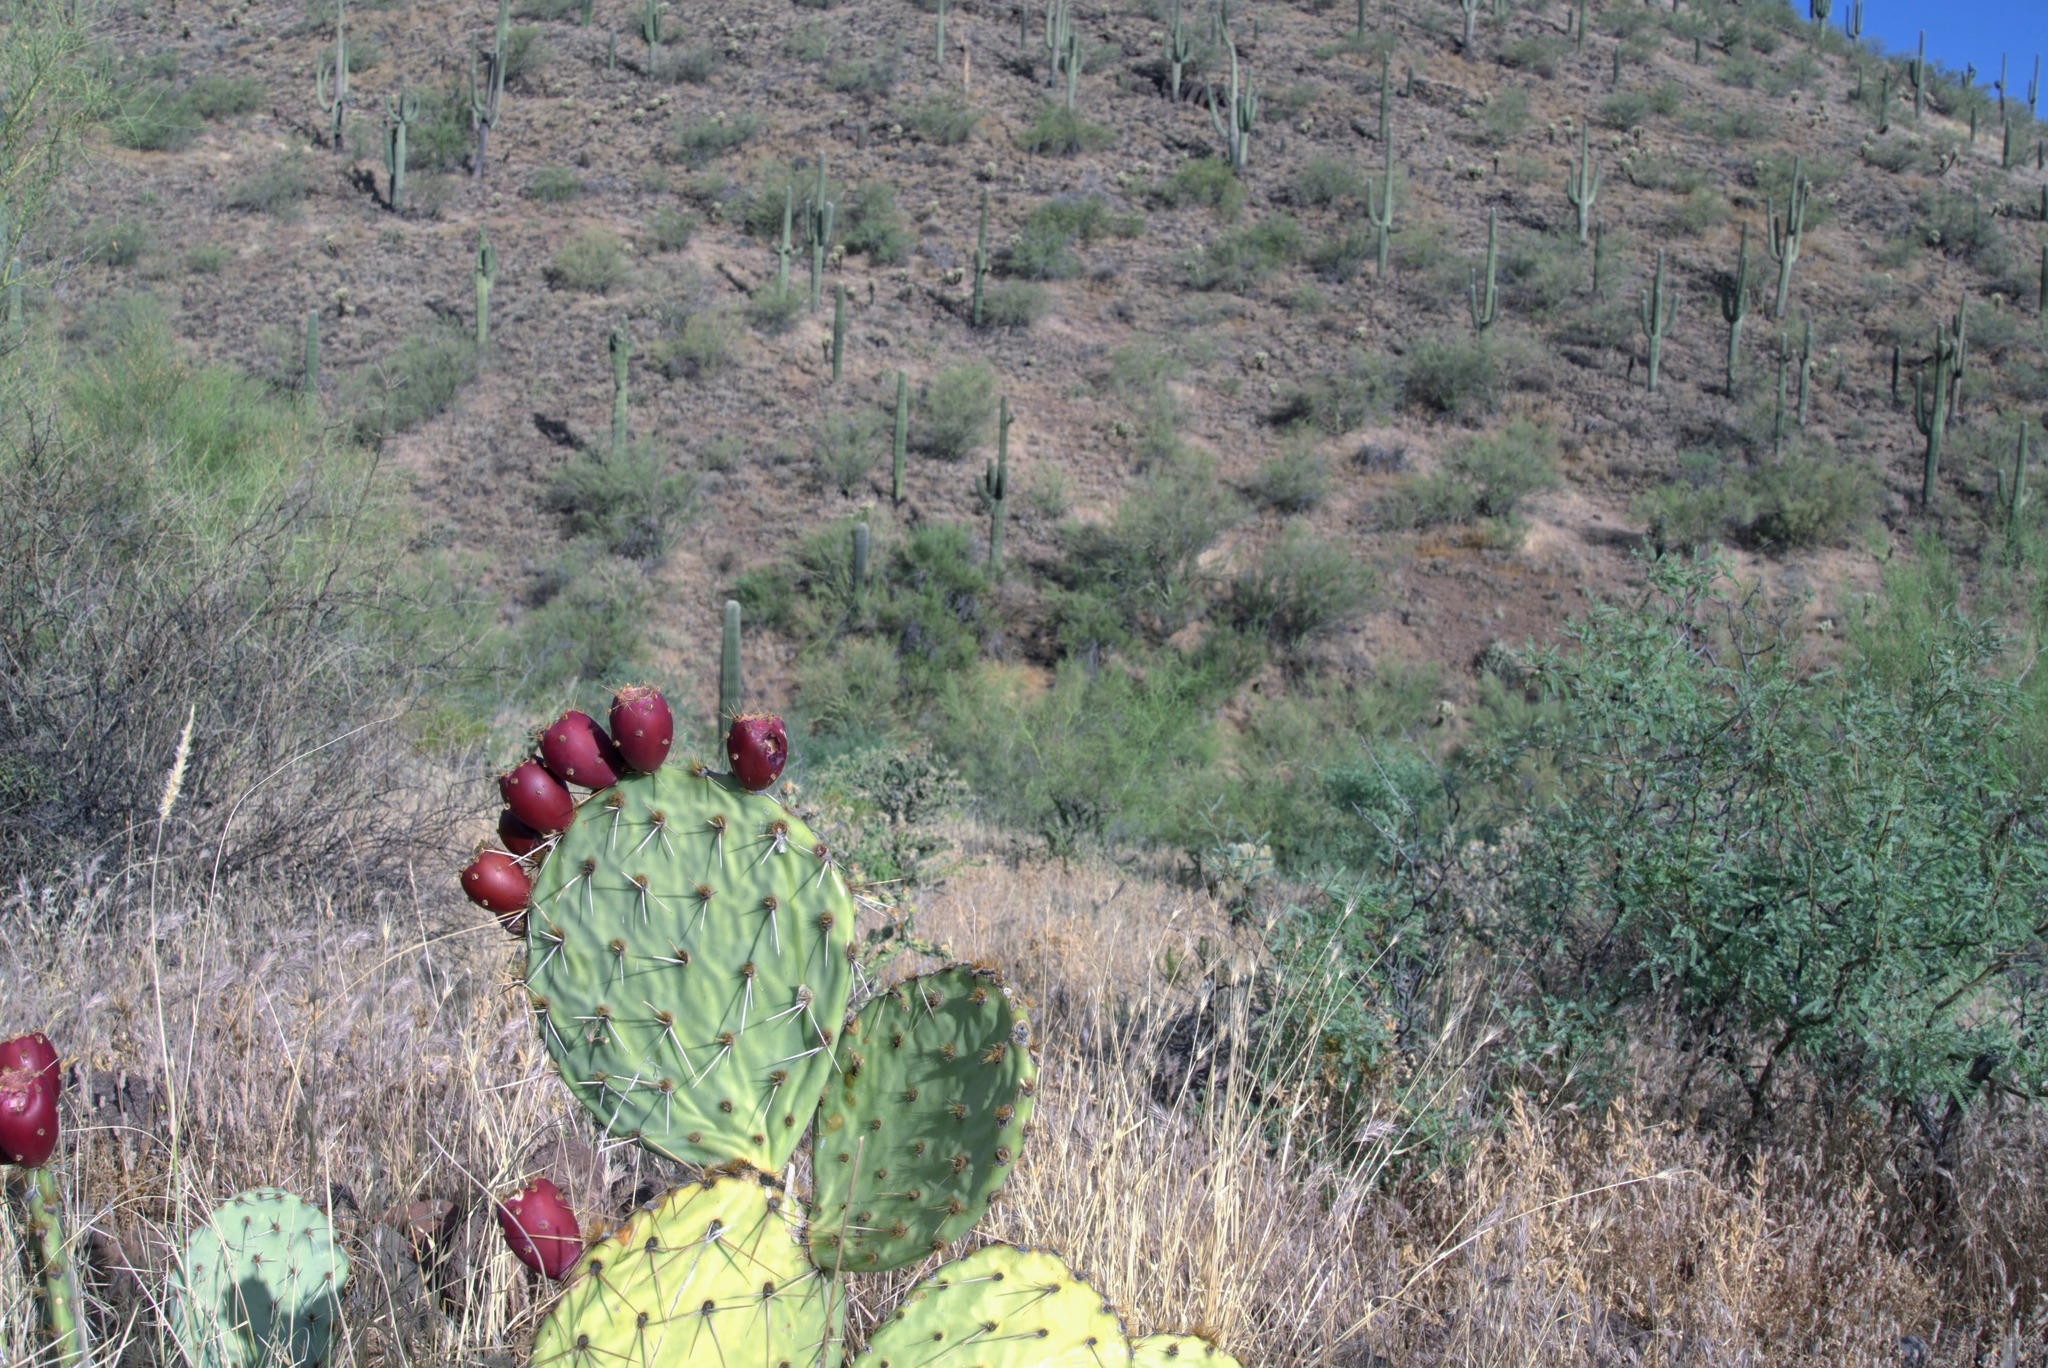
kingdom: Plantae
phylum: Tracheophyta
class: Magnoliopsida
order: Caryophyllales
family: Cactaceae
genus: Opuntia
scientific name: Opuntia engelmannii
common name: Cactus-apple
